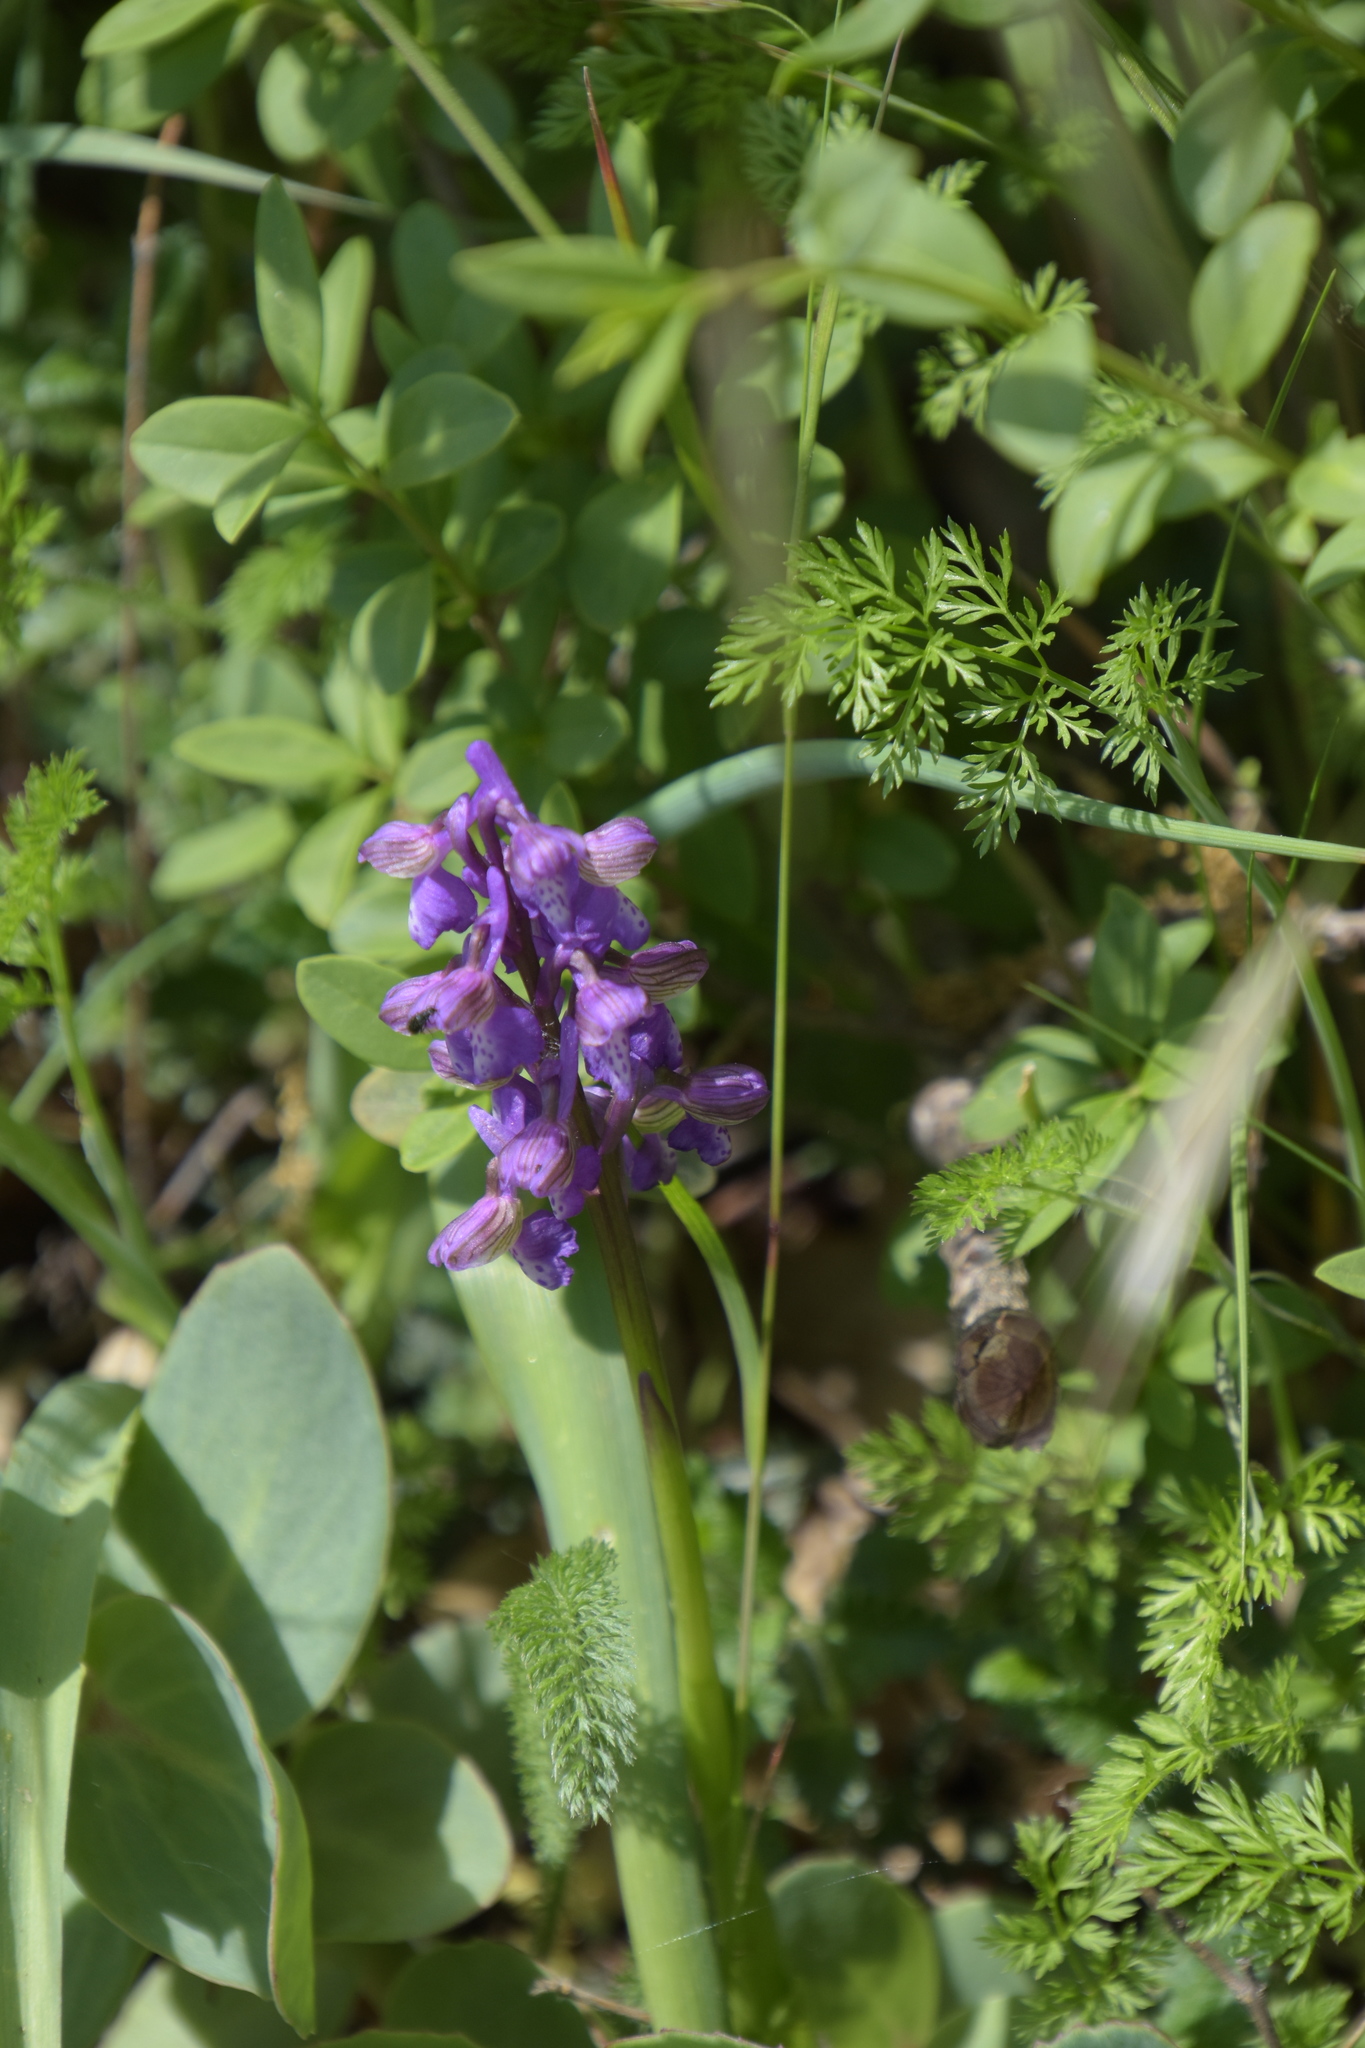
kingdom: Plantae
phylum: Tracheophyta
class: Liliopsida
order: Asparagales
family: Orchidaceae
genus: Anacamptis
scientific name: Anacamptis morio
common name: Green-winged orchid
